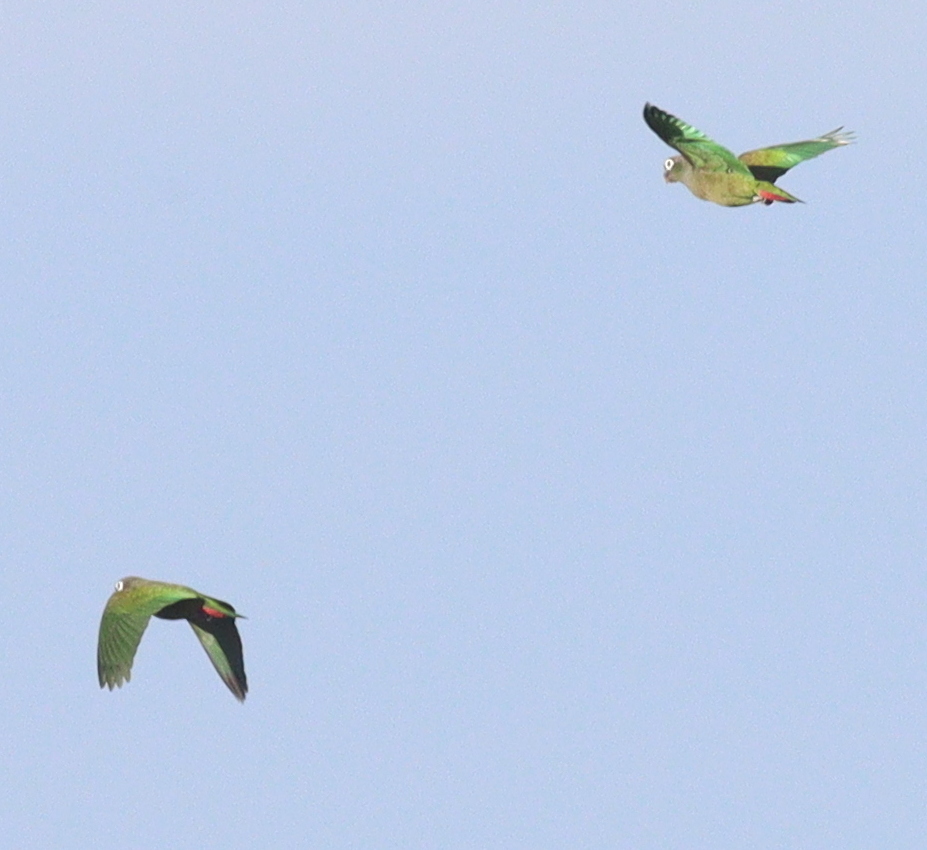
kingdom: Animalia
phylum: Chordata
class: Aves
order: Psittaciformes
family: Psittacidae
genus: Pionus
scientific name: Pionus maximiliani
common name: Scaly-headed parrot
